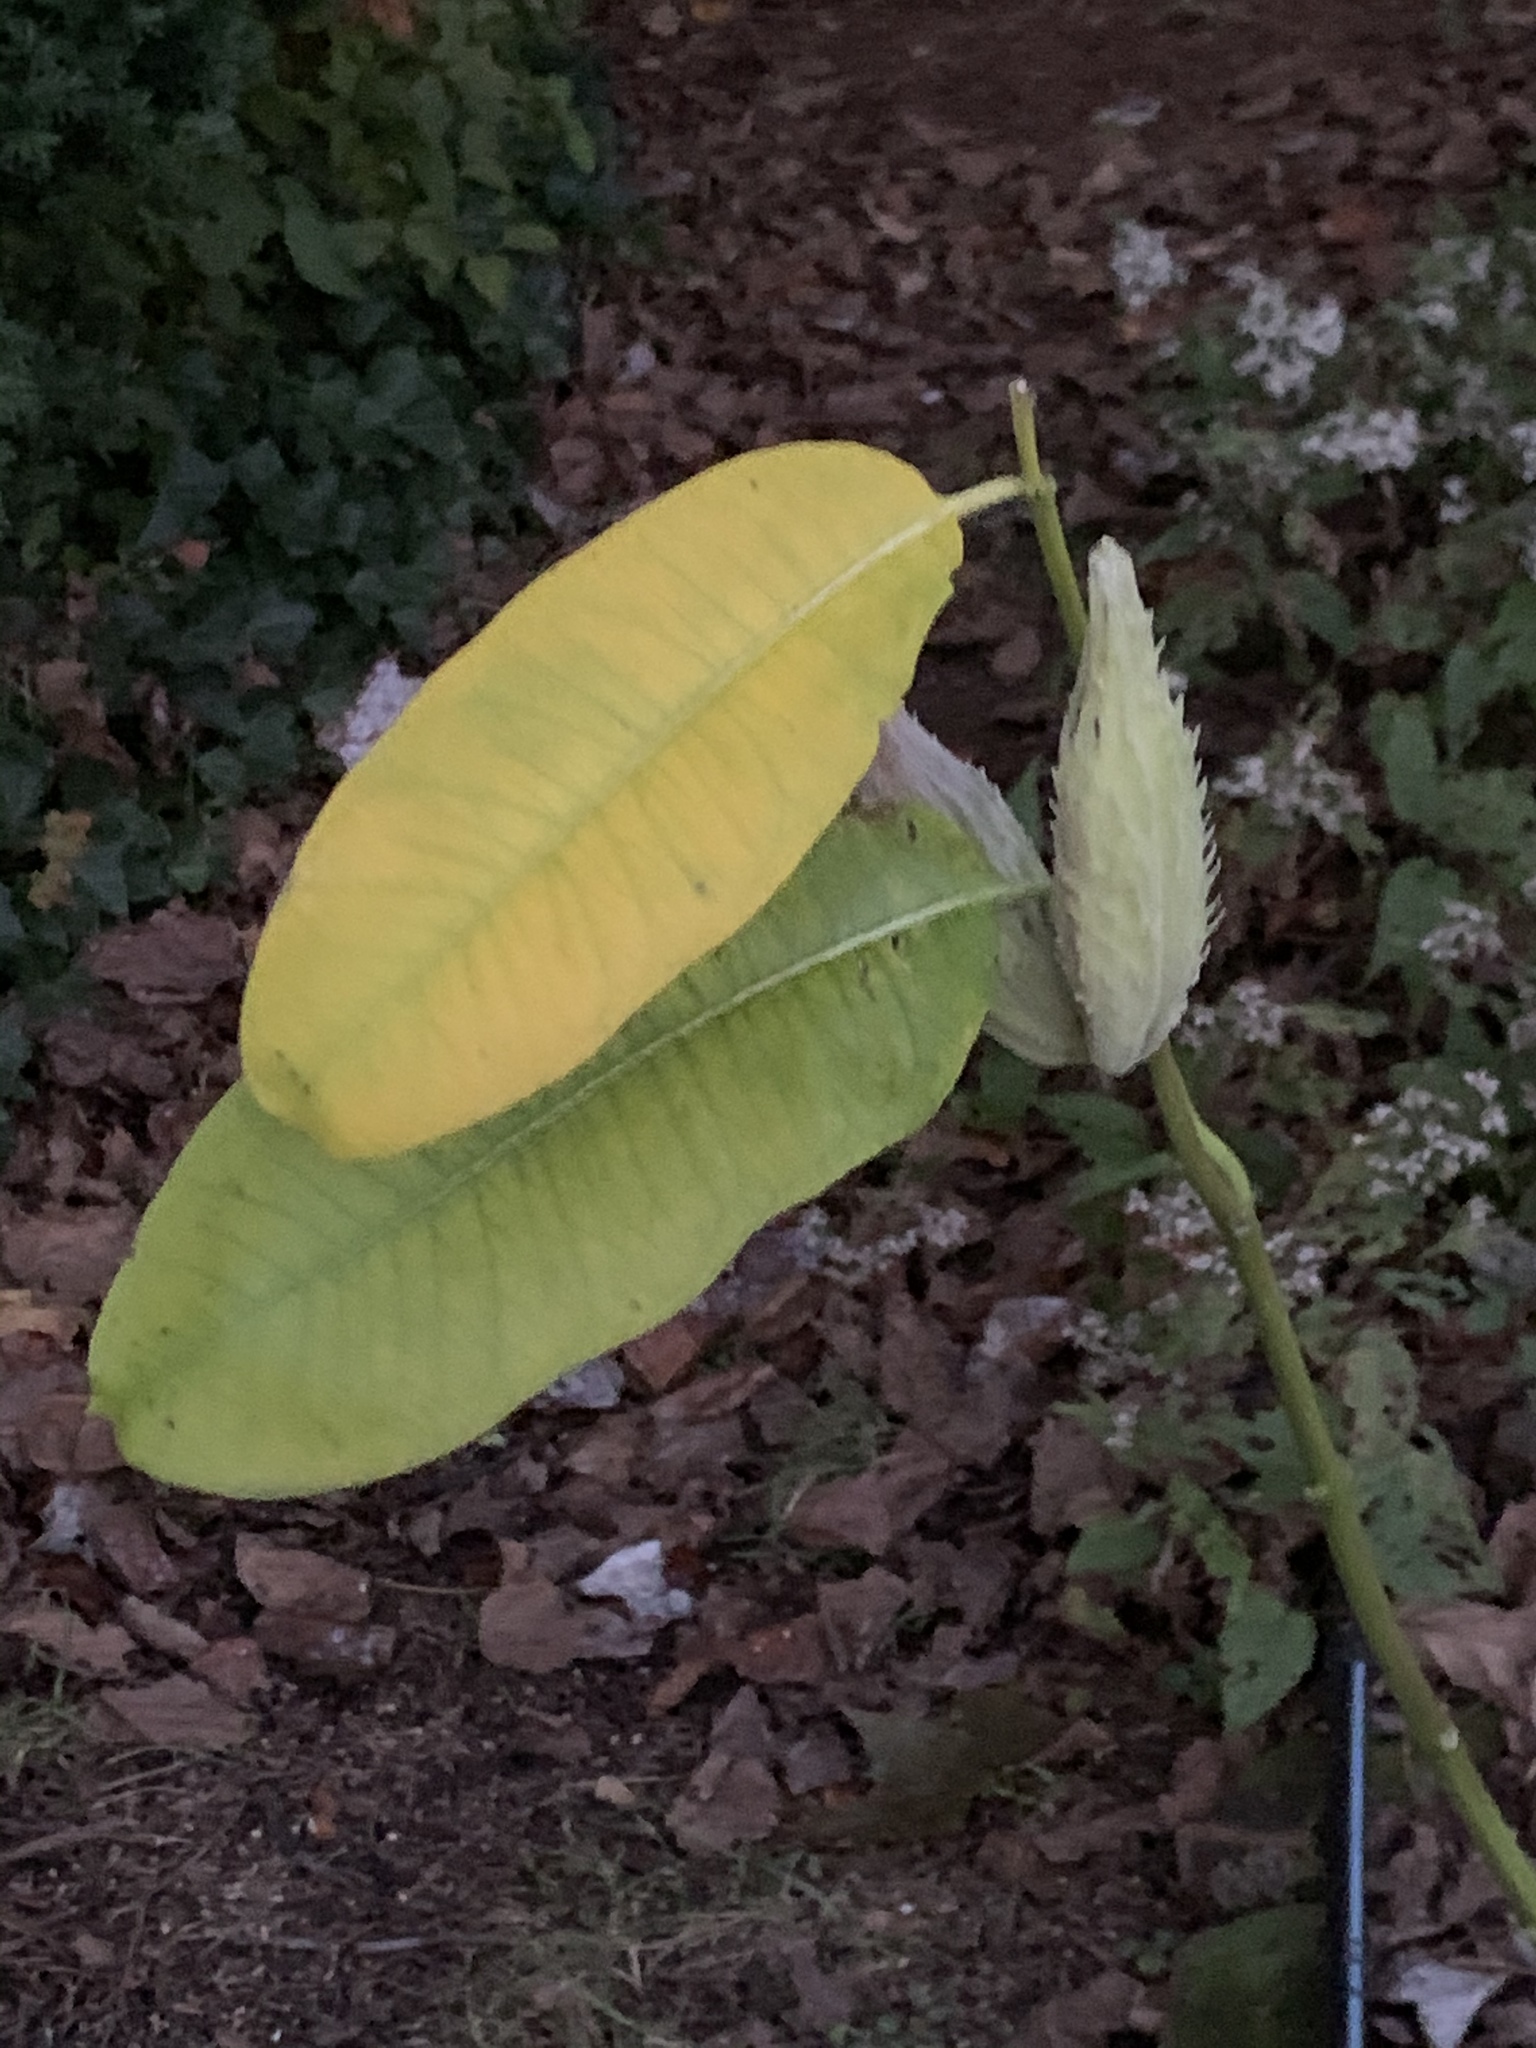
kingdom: Plantae
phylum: Tracheophyta
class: Magnoliopsida
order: Gentianales
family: Apocynaceae
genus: Asclepias
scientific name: Asclepias syriaca
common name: Common milkweed
